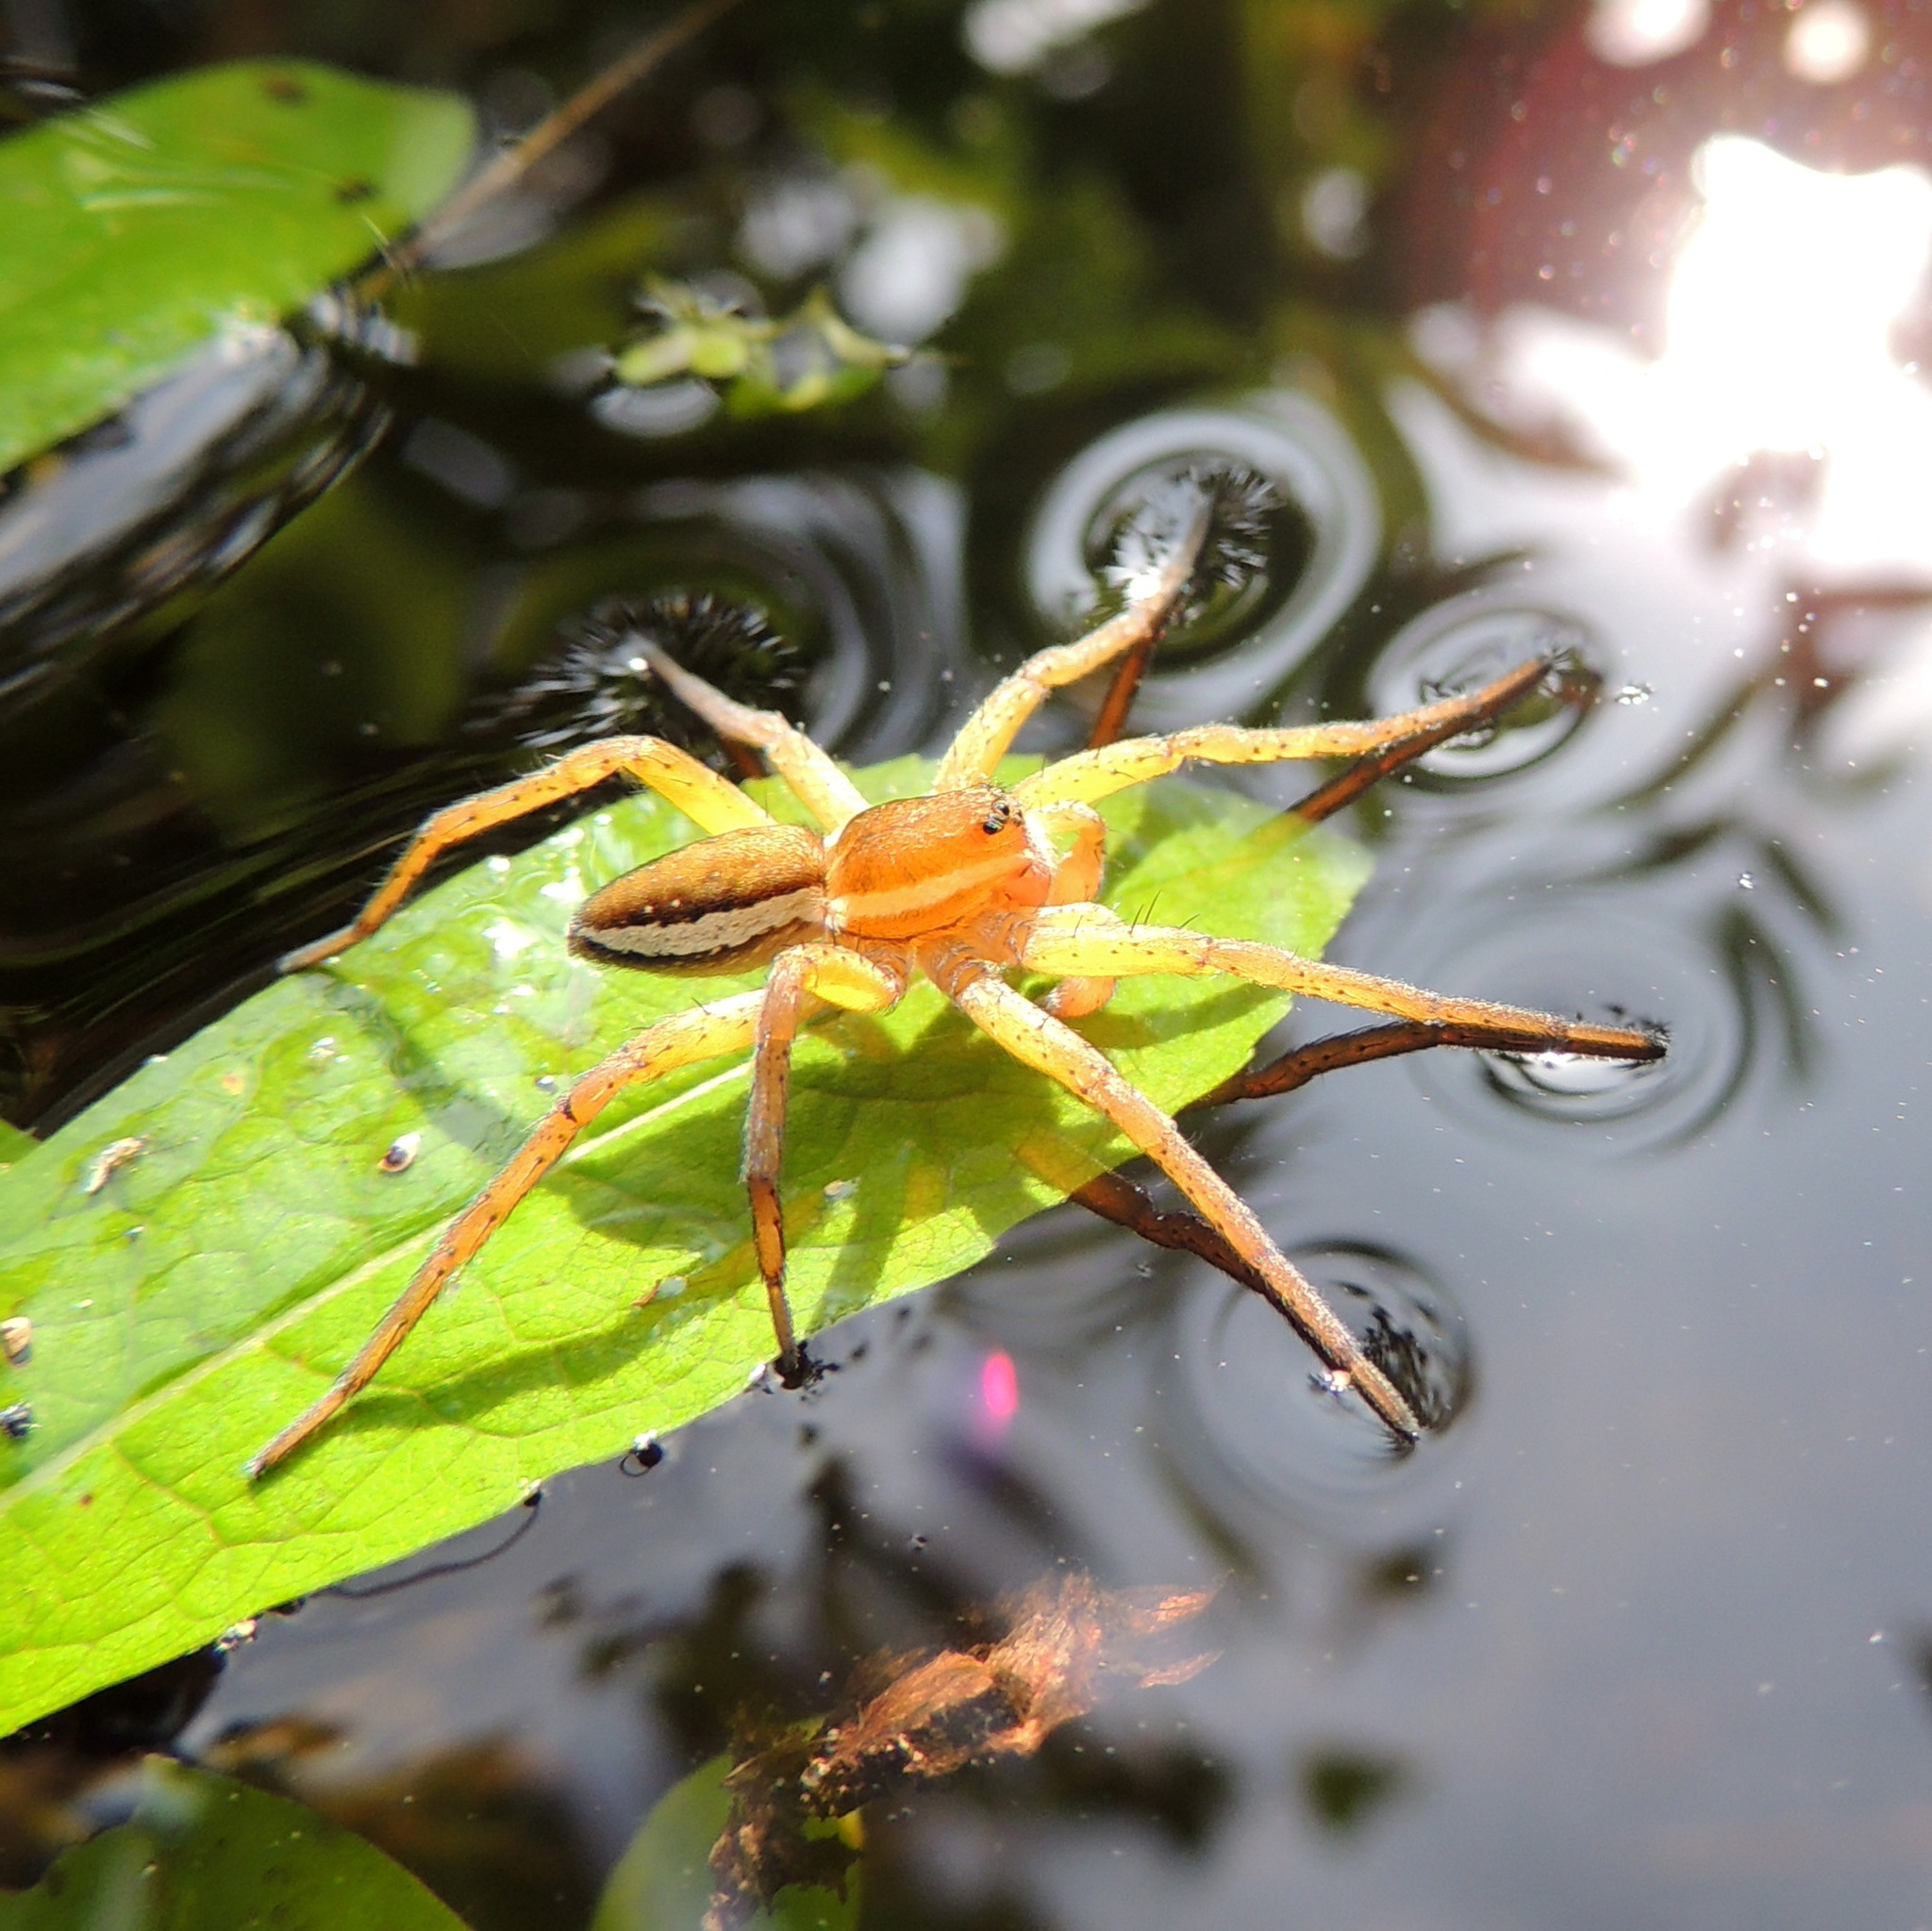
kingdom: Animalia
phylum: Arthropoda
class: Arachnida
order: Araneae
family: Pisauridae
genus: Dolomedes
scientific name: Dolomedes fimbriatus
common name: Raft spider
